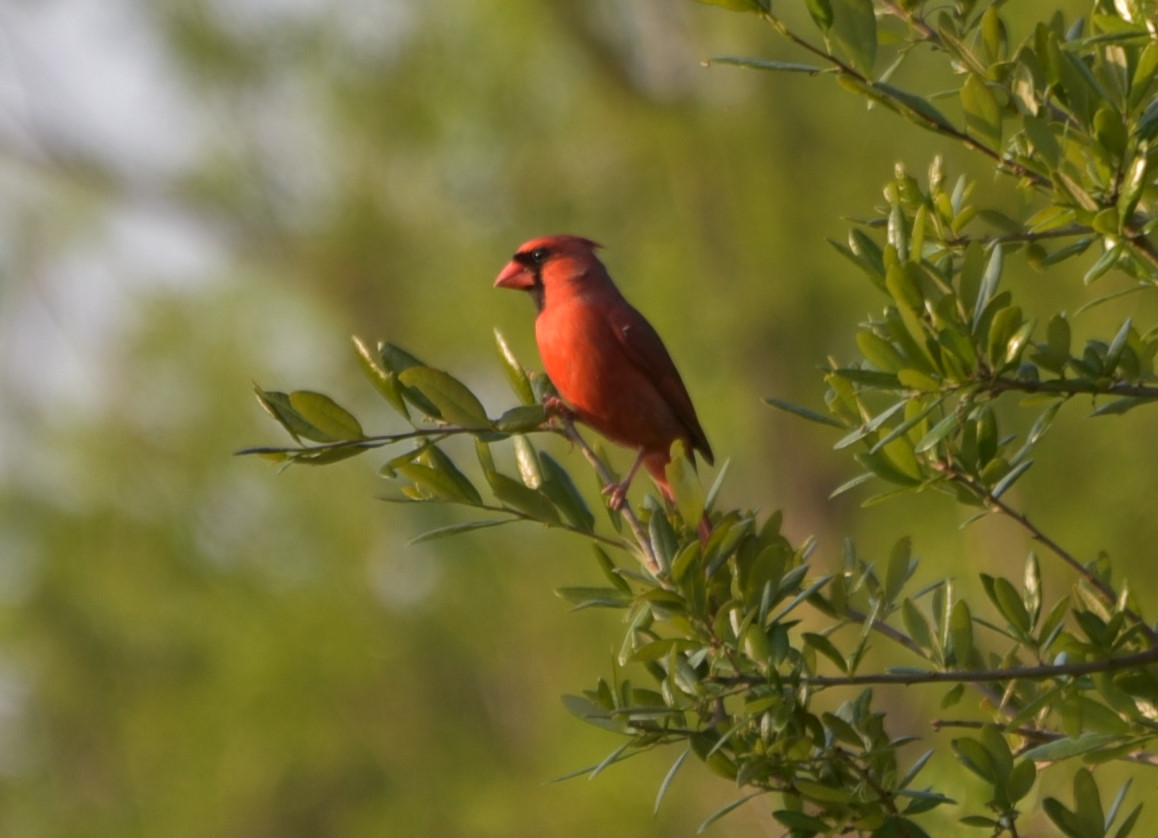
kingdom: Animalia
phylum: Chordata
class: Aves
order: Passeriformes
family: Cardinalidae
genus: Cardinalis
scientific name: Cardinalis cardinalis
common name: Northern cardinal
